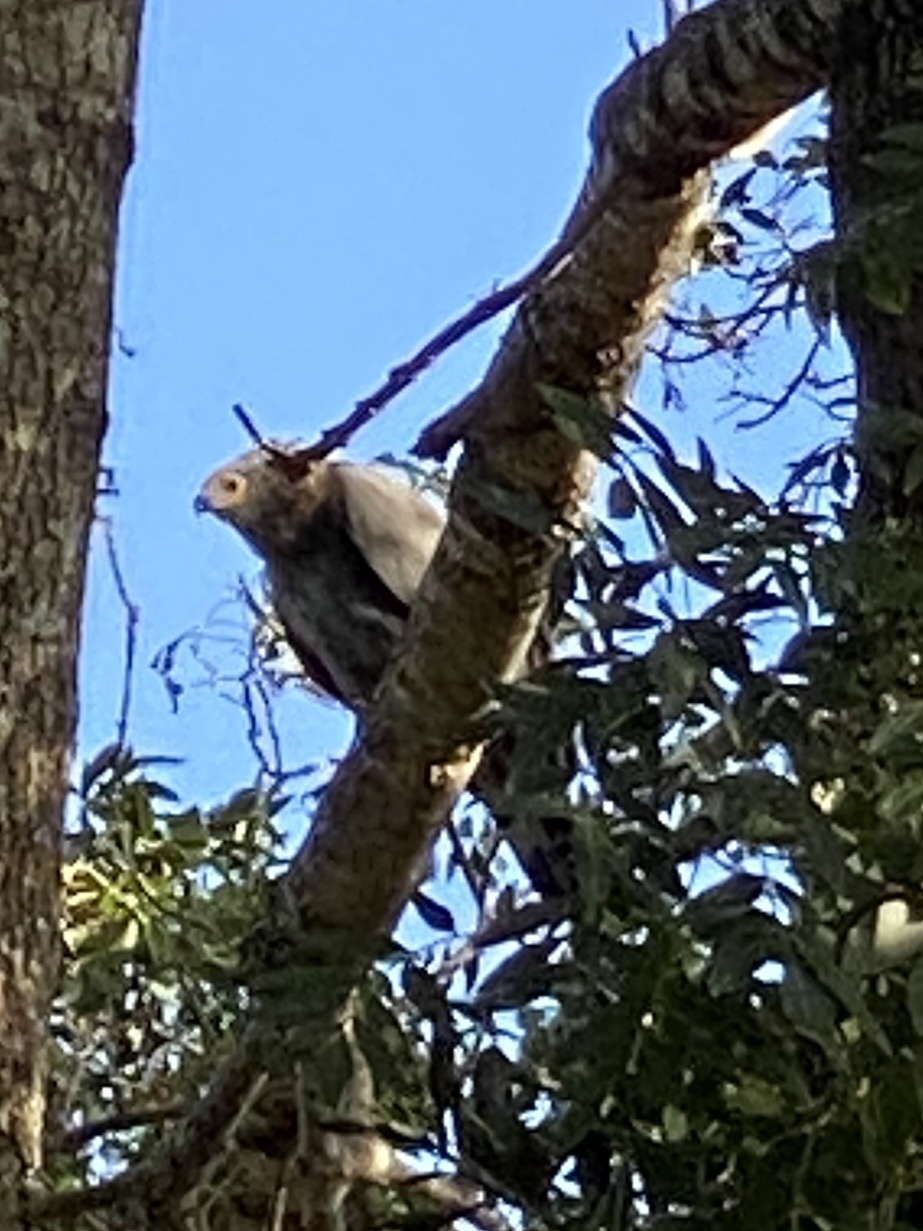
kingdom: Animalia
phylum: Chordata
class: Aves
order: Accipitriformes
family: Accipitridae
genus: Polyboroides
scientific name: Polyboroides typus
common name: African harrier-hawk
